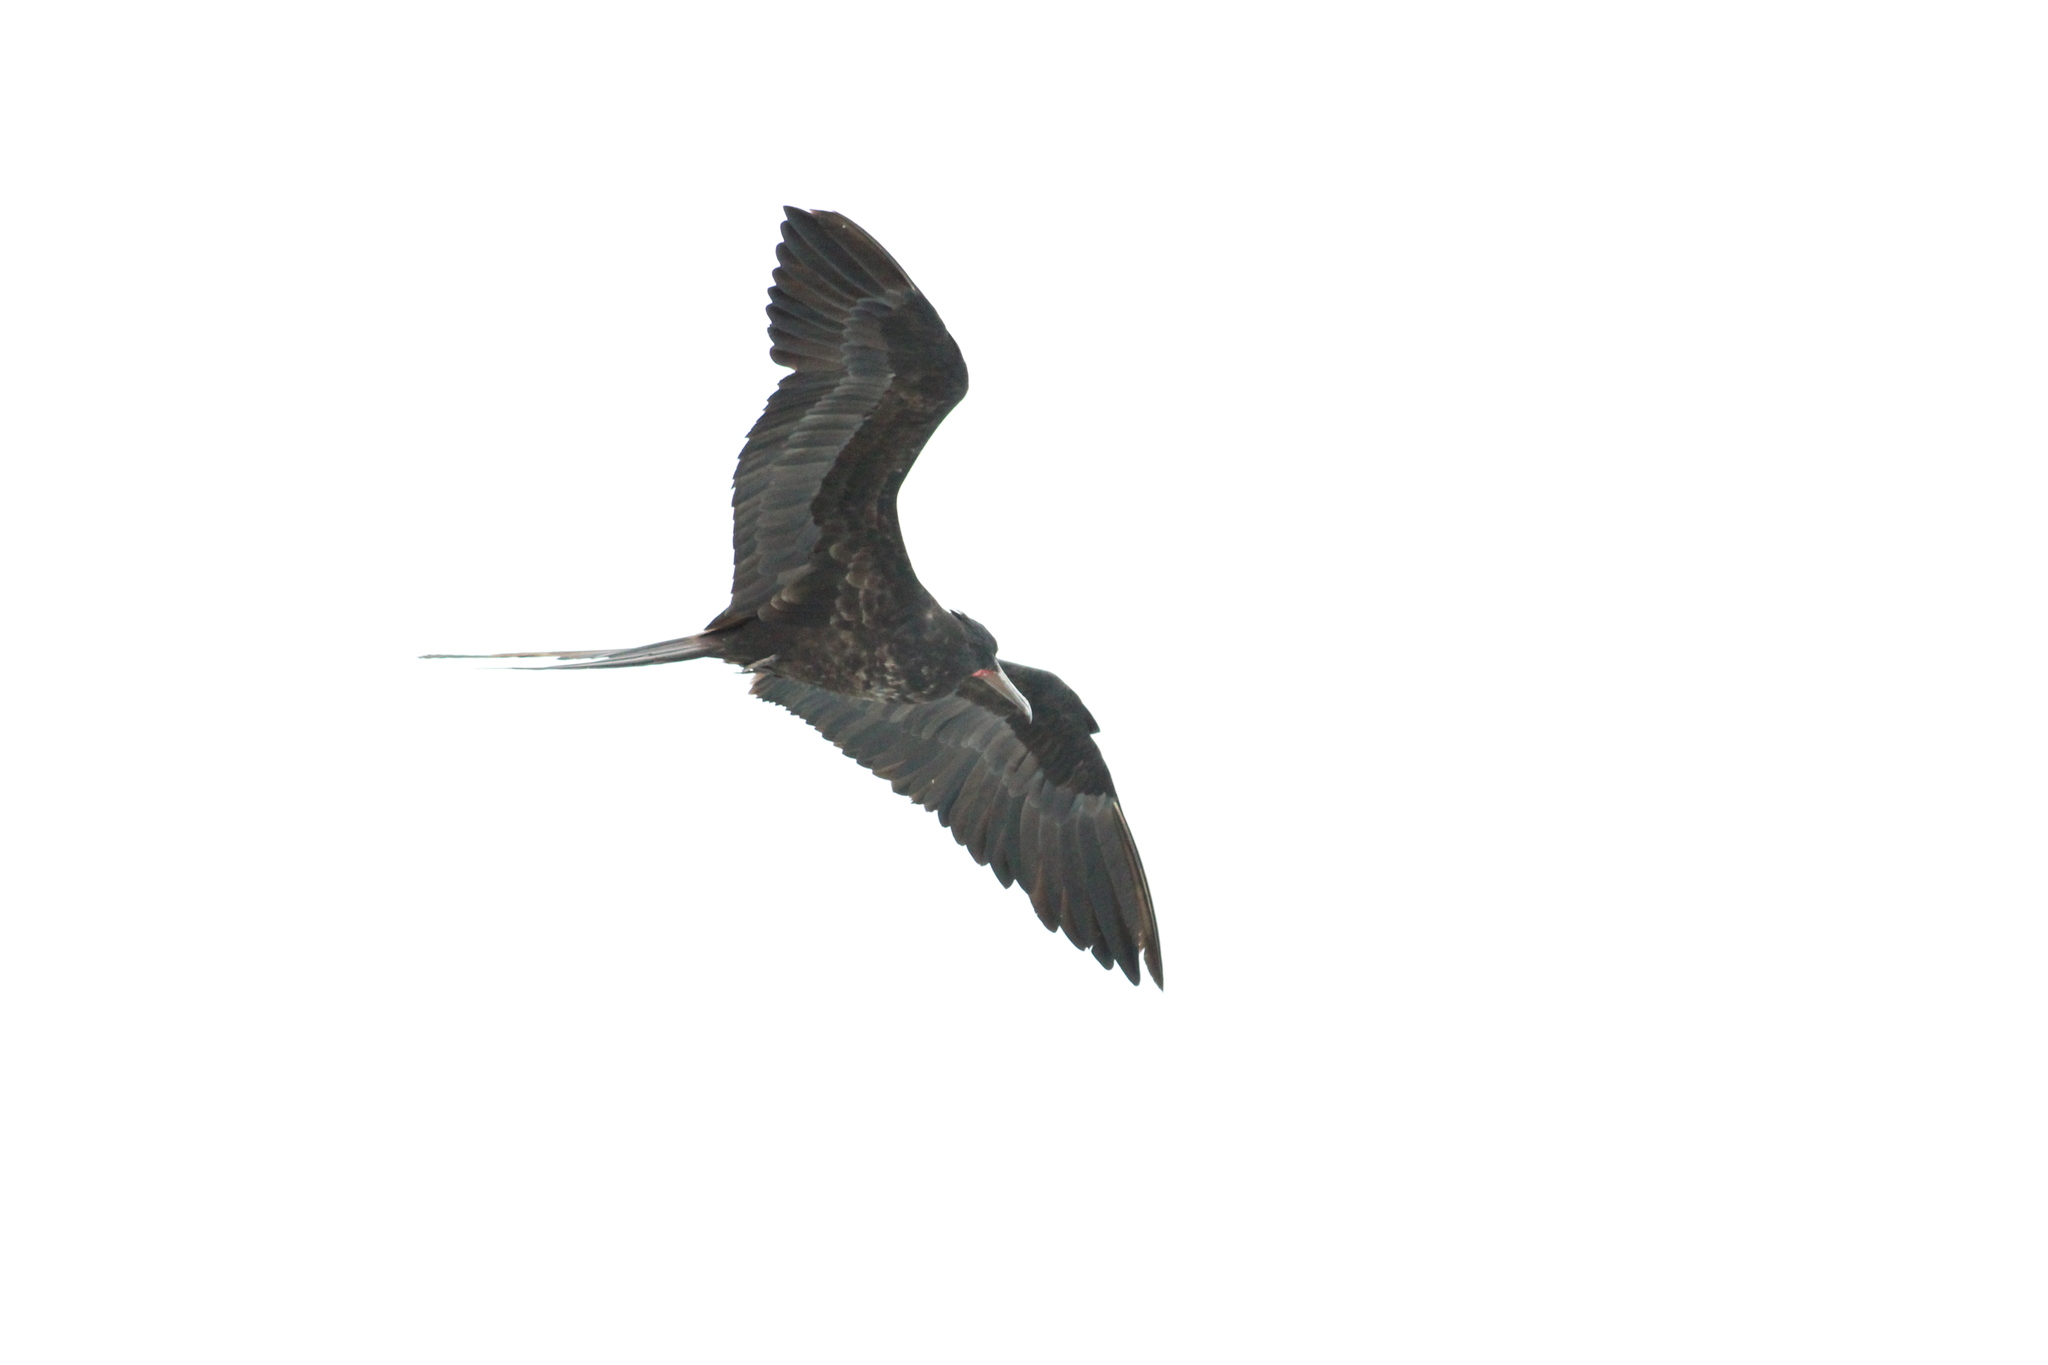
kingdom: Animalia
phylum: Chordata
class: Aves
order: Suliformes
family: Fregatidae
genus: Fregata
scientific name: Fregata magnificens
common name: Magnificent frigatebird
